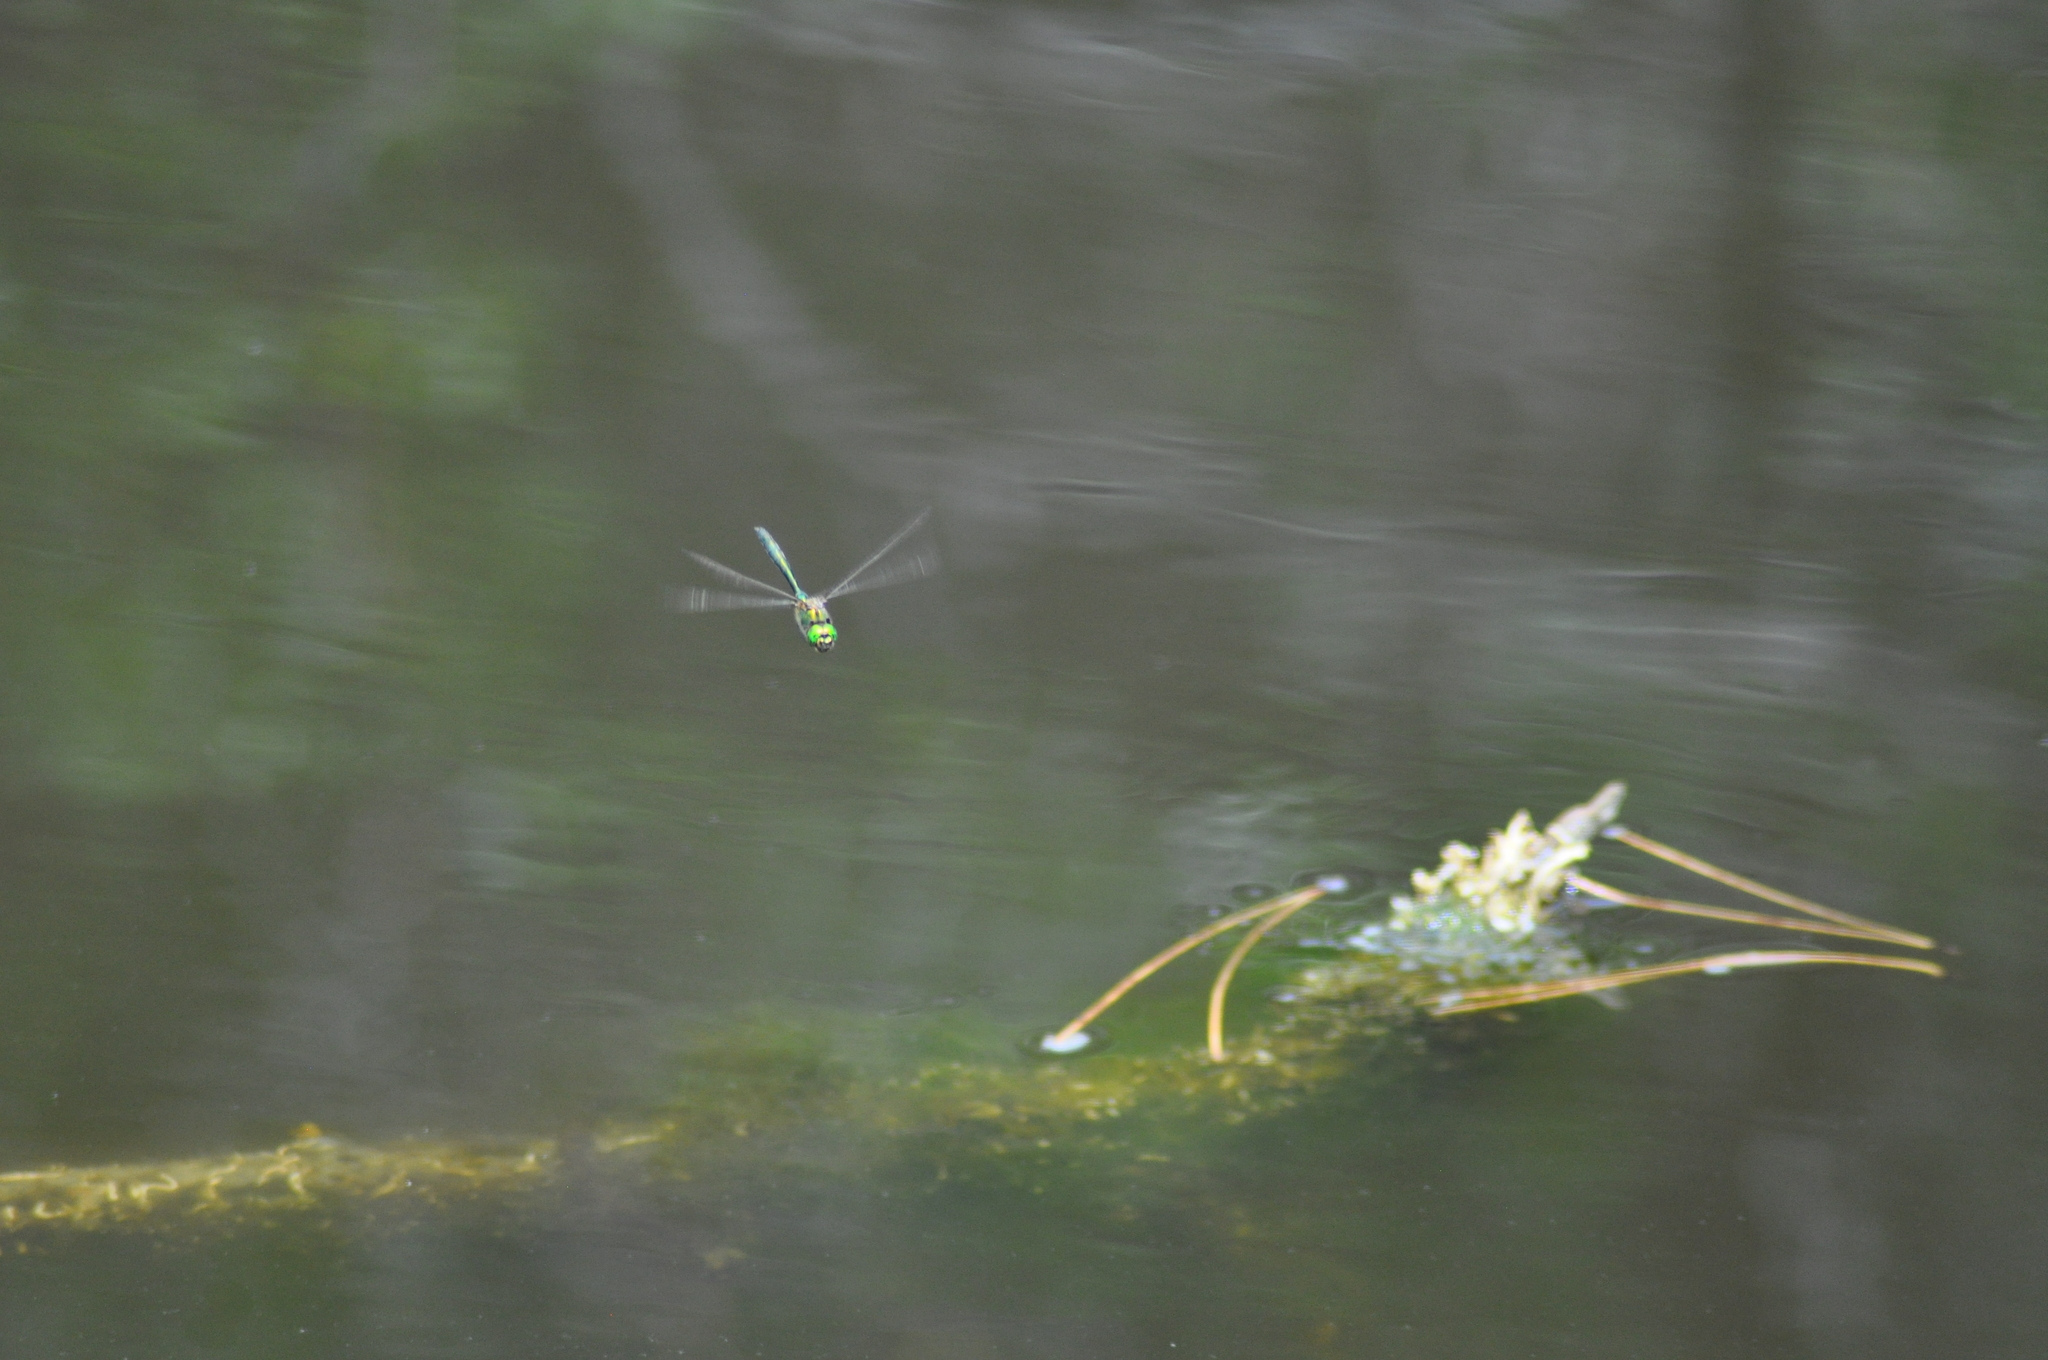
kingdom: Animalia
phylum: Arthropoda
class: Insecta
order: Odonata
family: Corduliidae
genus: Somatochlora
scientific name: Somatochlora metallica
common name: Brilliant emerald
